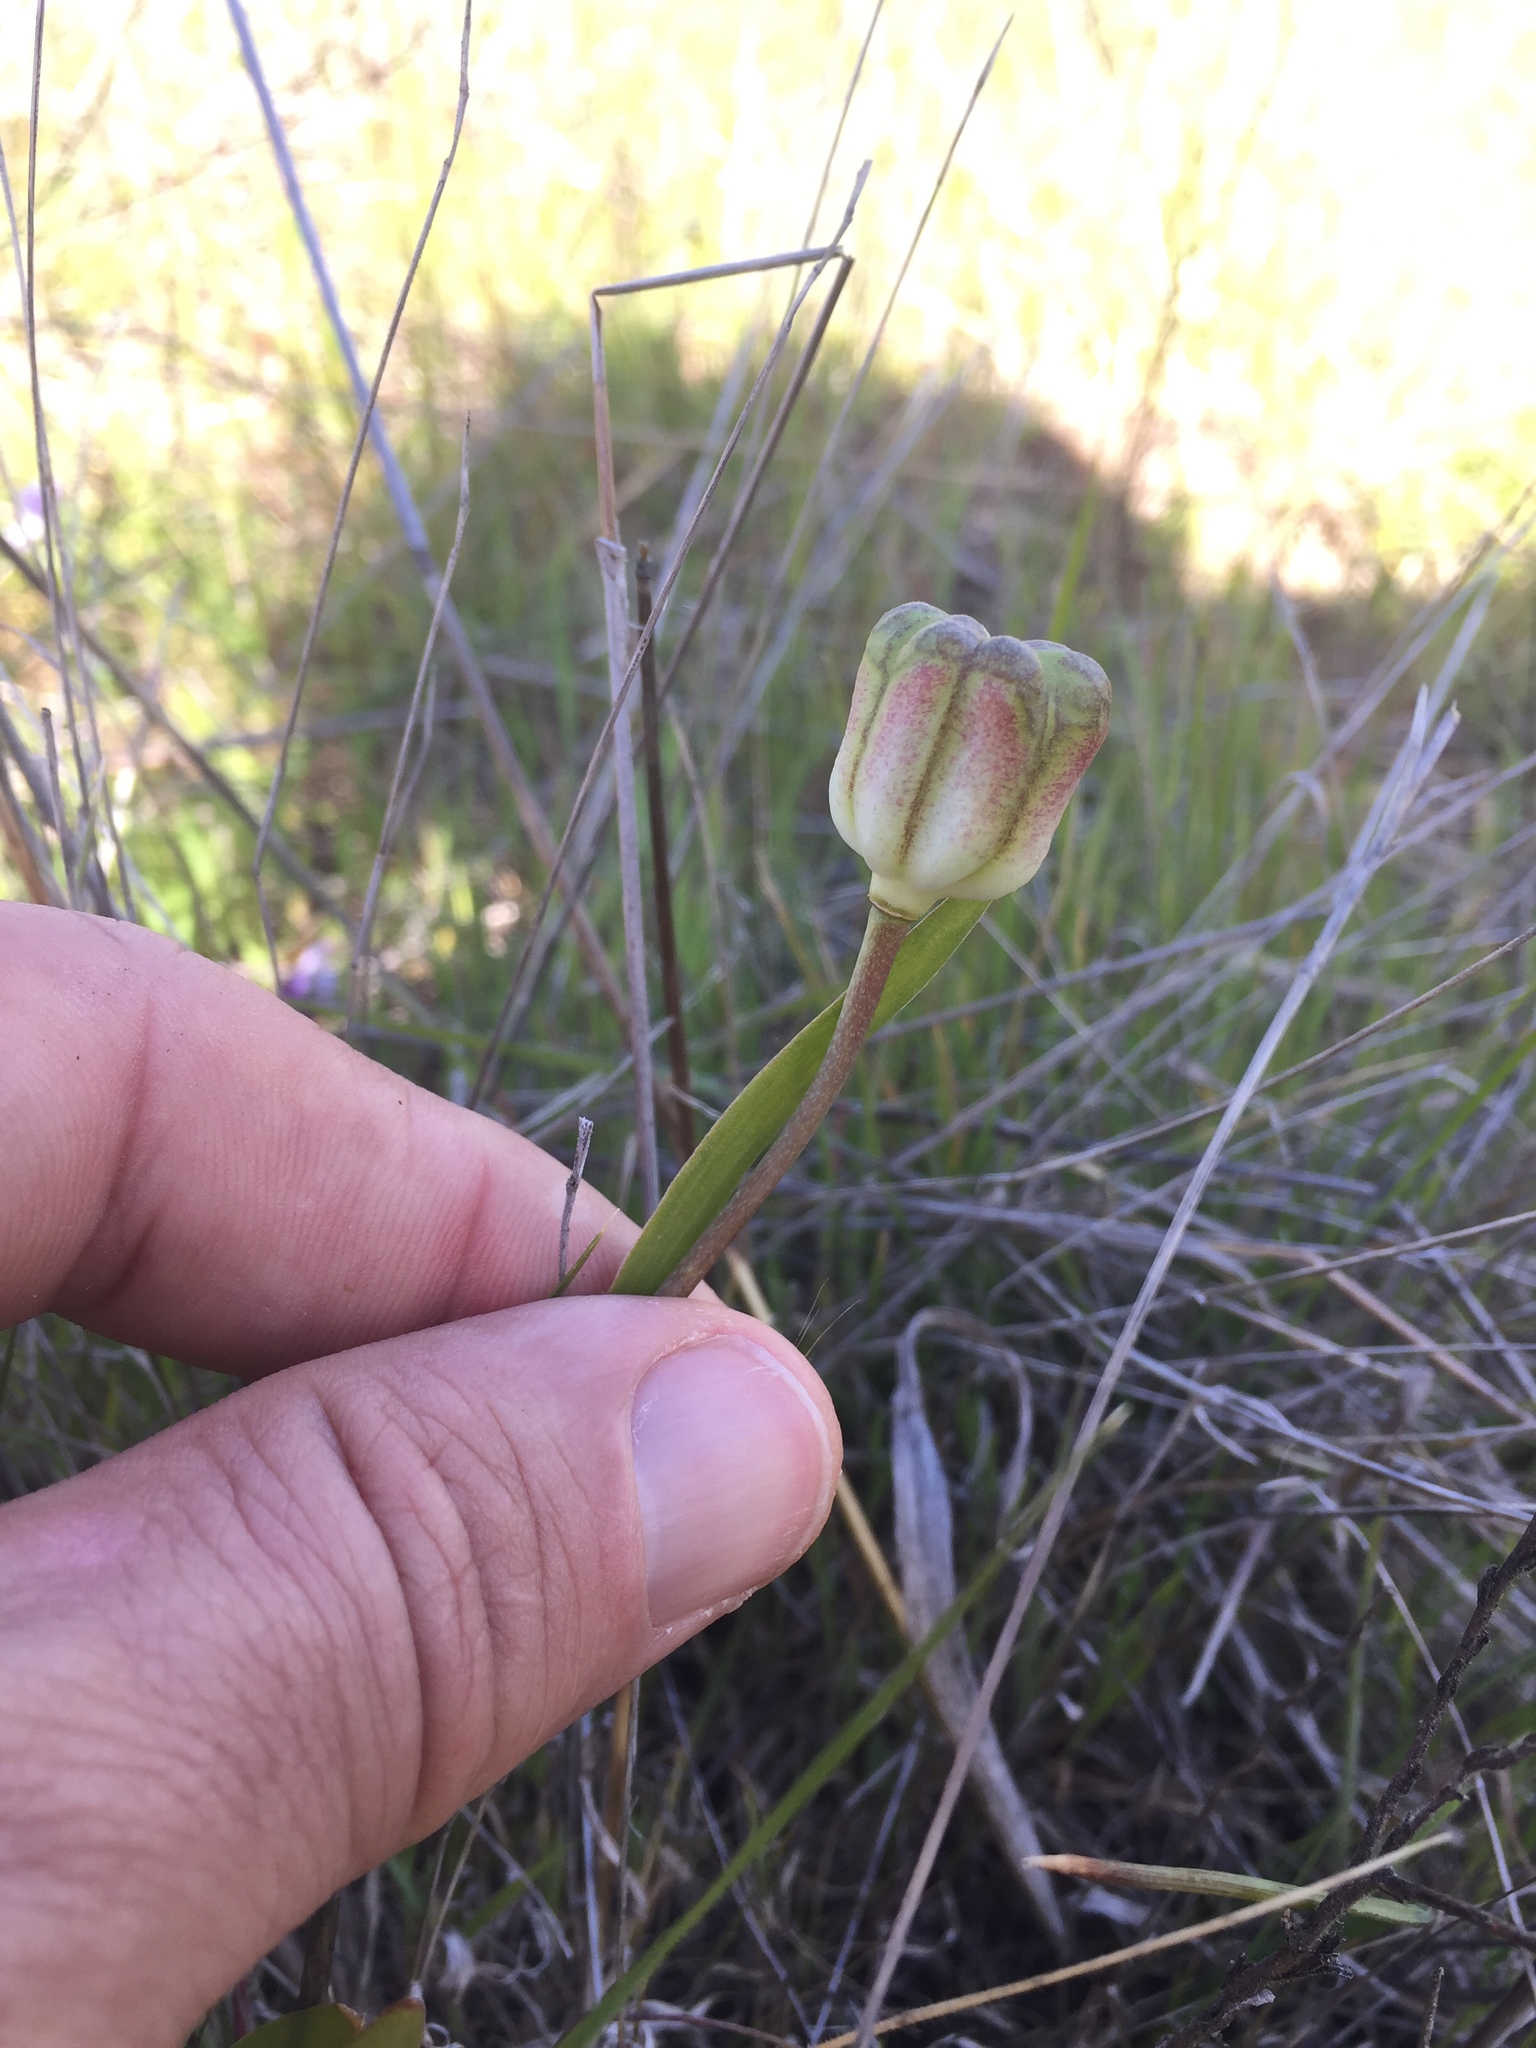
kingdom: Plantae
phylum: Tracheophyta
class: Liliopsida
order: Liliales
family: Liliaceae
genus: Fritillaria
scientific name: Fritillaria liliacea
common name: Fragrant fritillary
